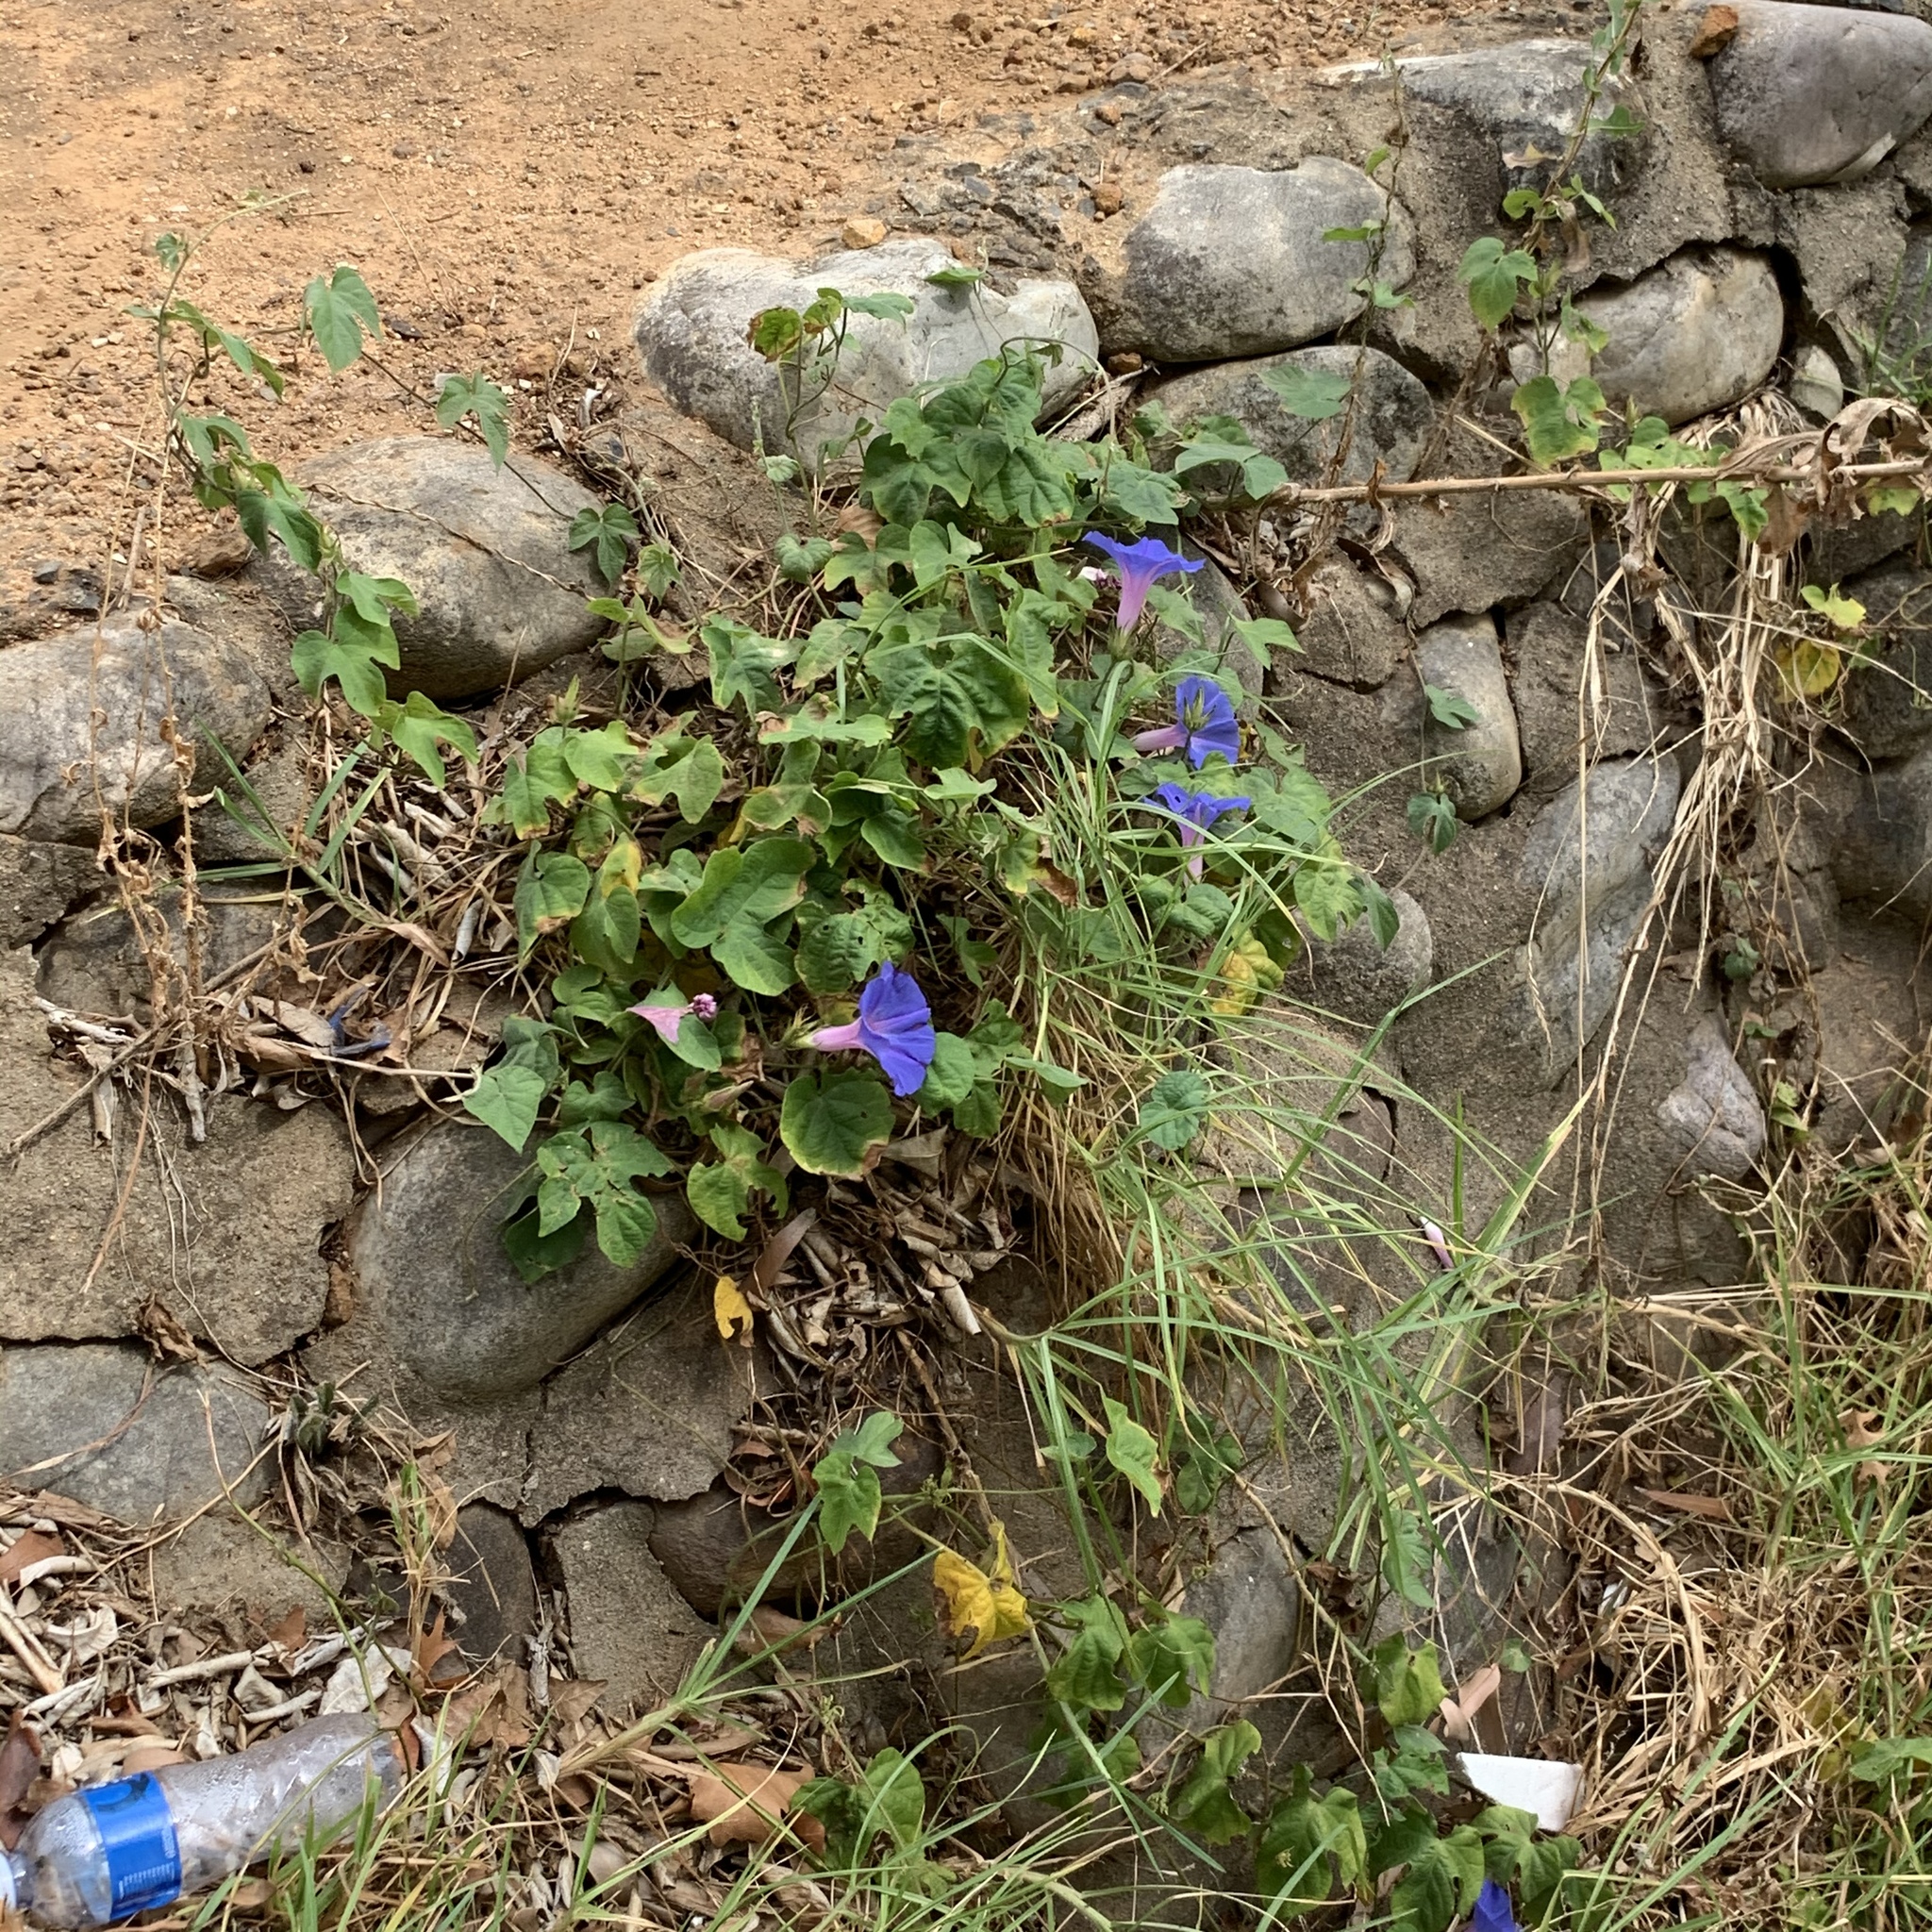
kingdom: Plantae
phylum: Tracheophyta
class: Magnoliopsida
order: Solanales
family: Convolvulaceae
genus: Ipomoea
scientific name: Ipomoea indica
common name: Blue dawnflower
